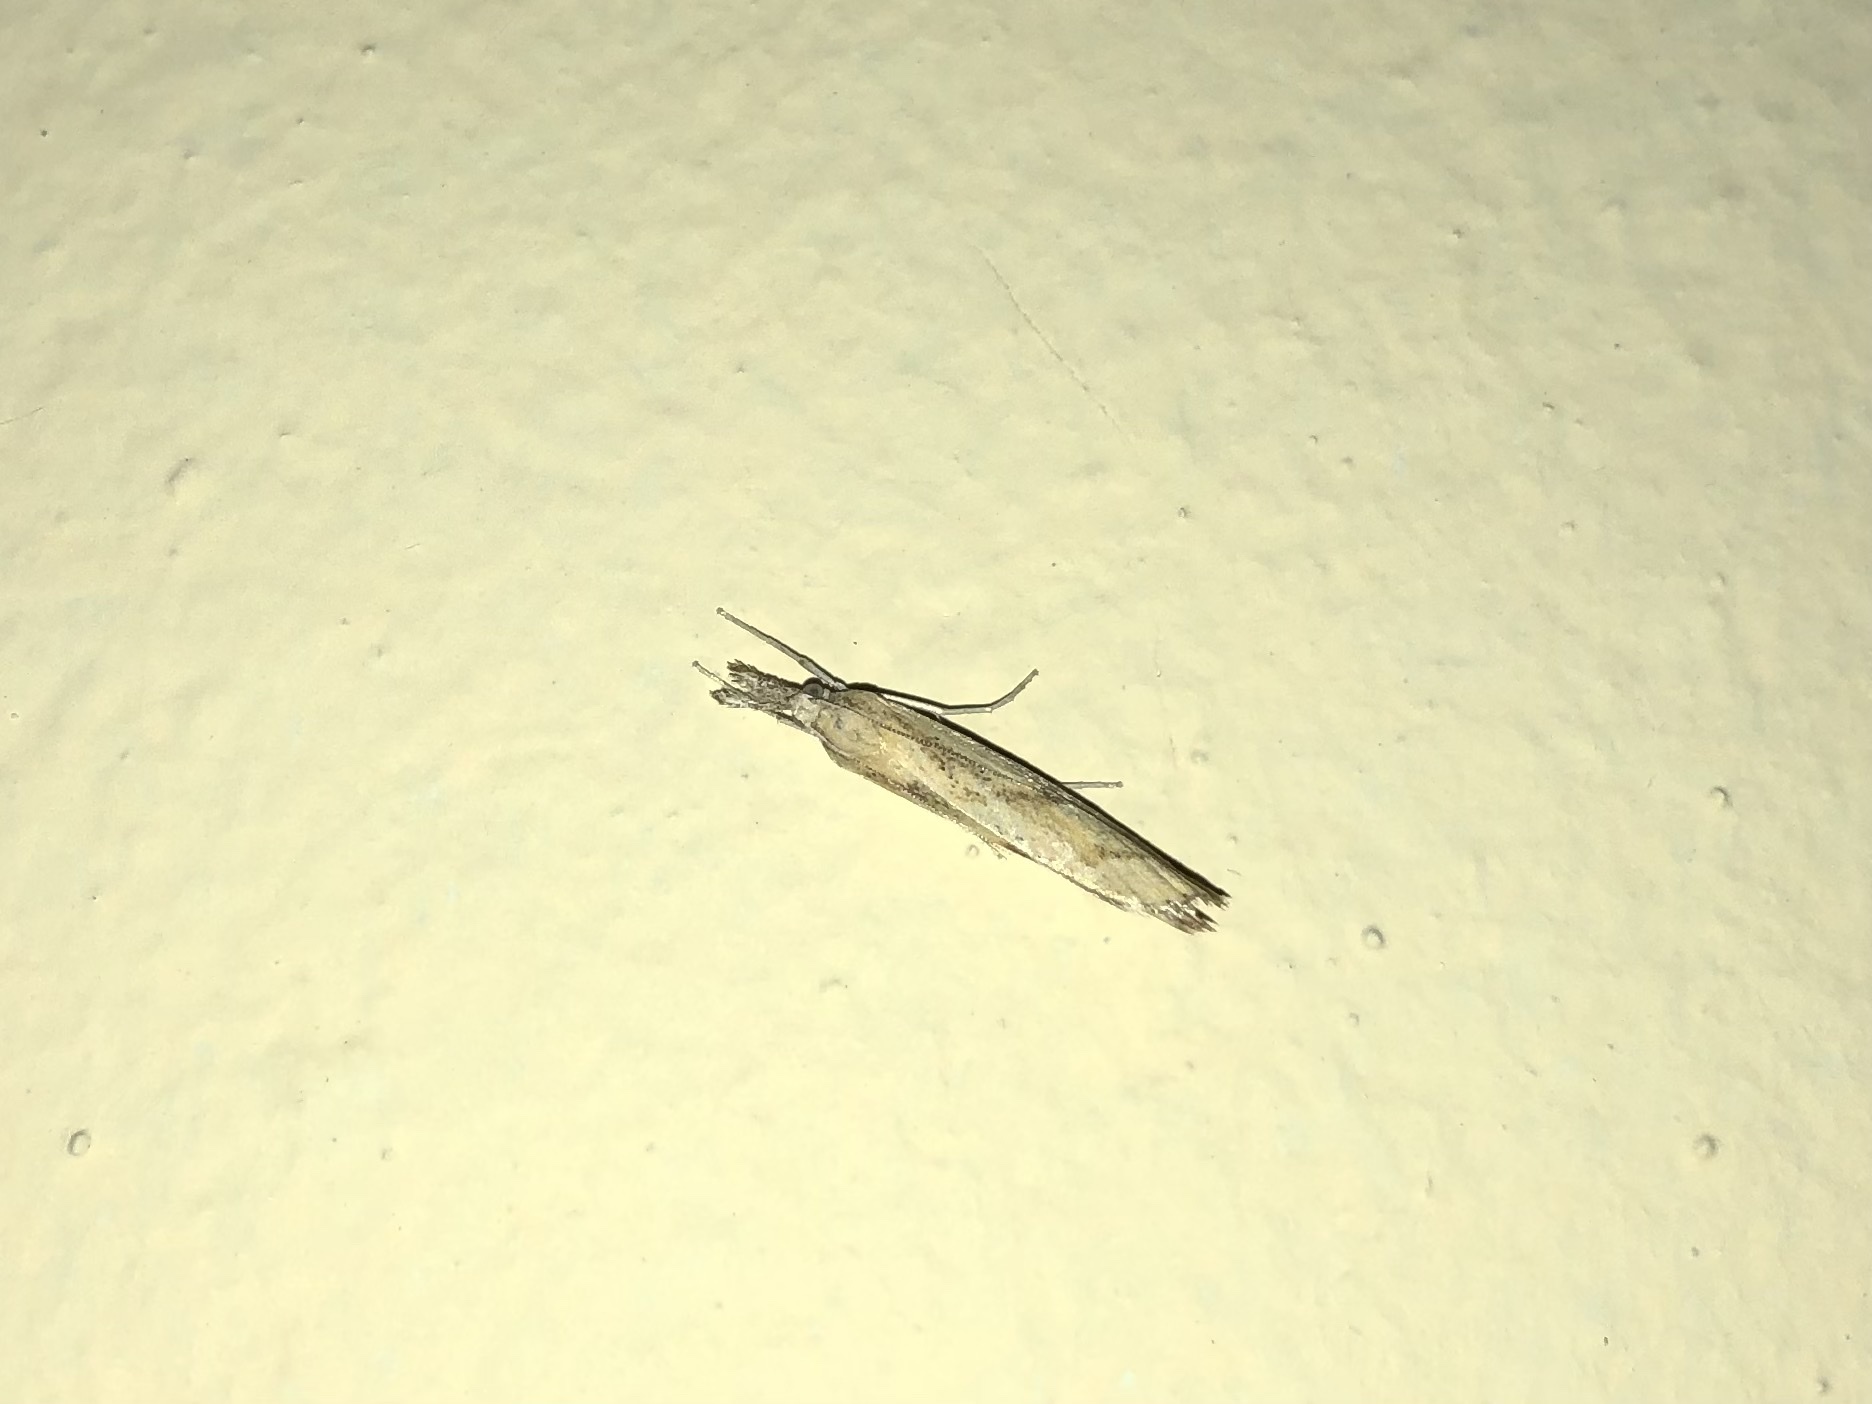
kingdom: Animalia
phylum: Arthropoda
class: Insecta
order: Lepidoptera
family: Crambidae
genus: Agriphila
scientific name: Agriphila inquinatella
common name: Barred grass-veneer
